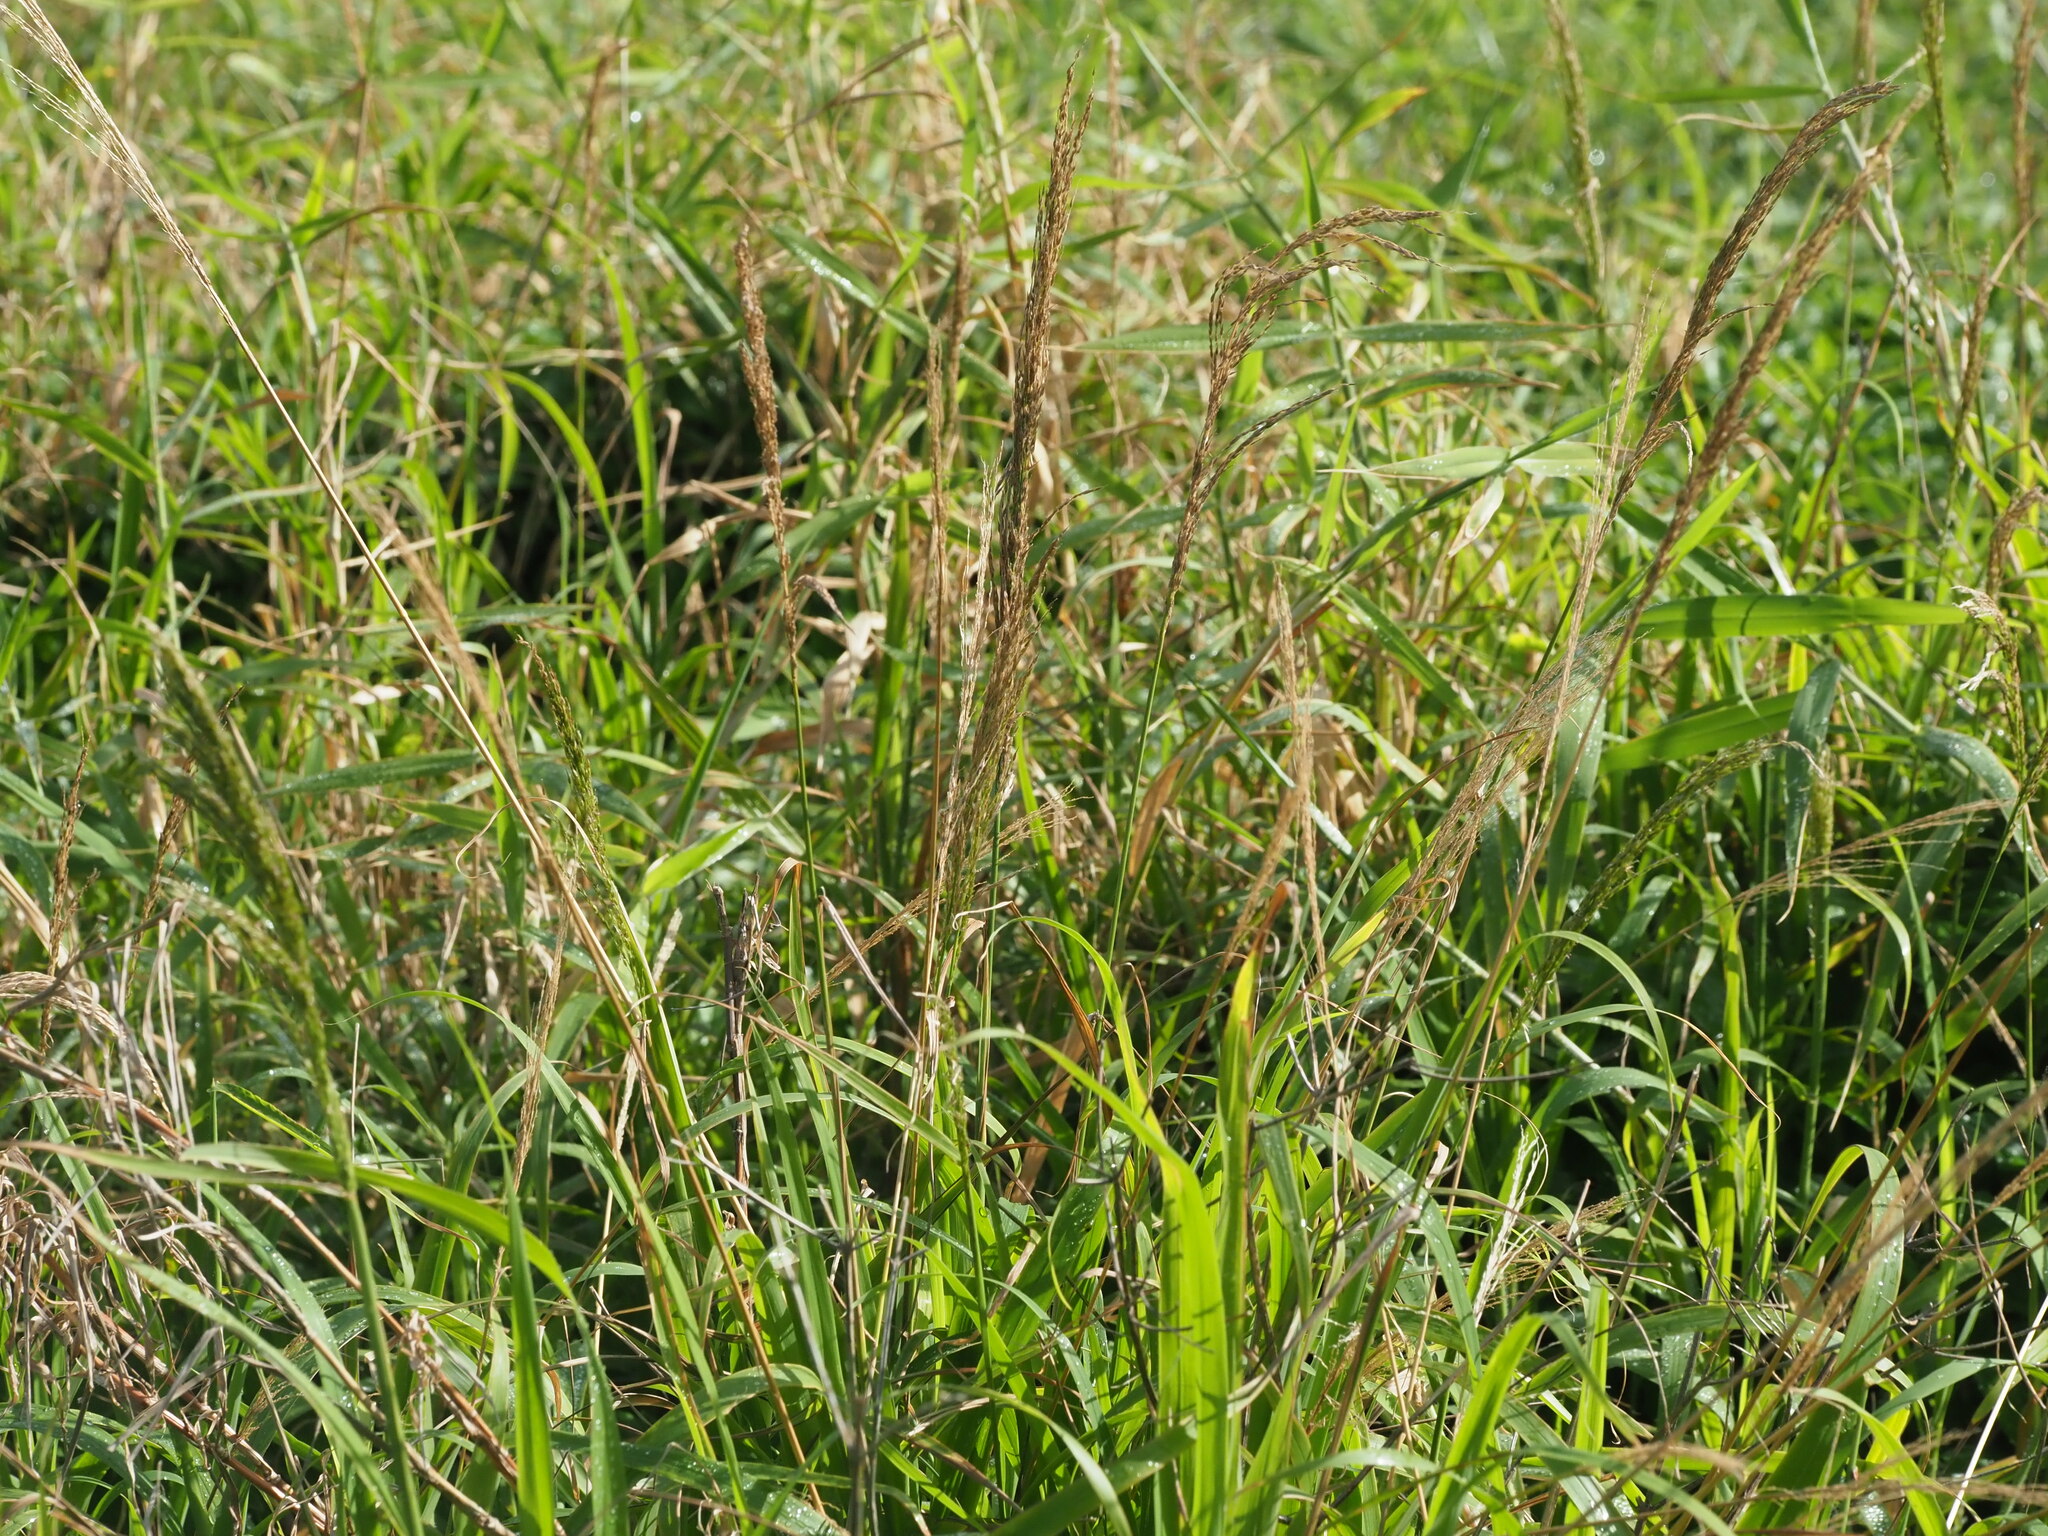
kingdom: Plantae
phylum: Tracheophyta
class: Liliopsida
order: Poales
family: Poaceae
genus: Digitaria
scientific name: Digitaria insularis
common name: Sourgrass
